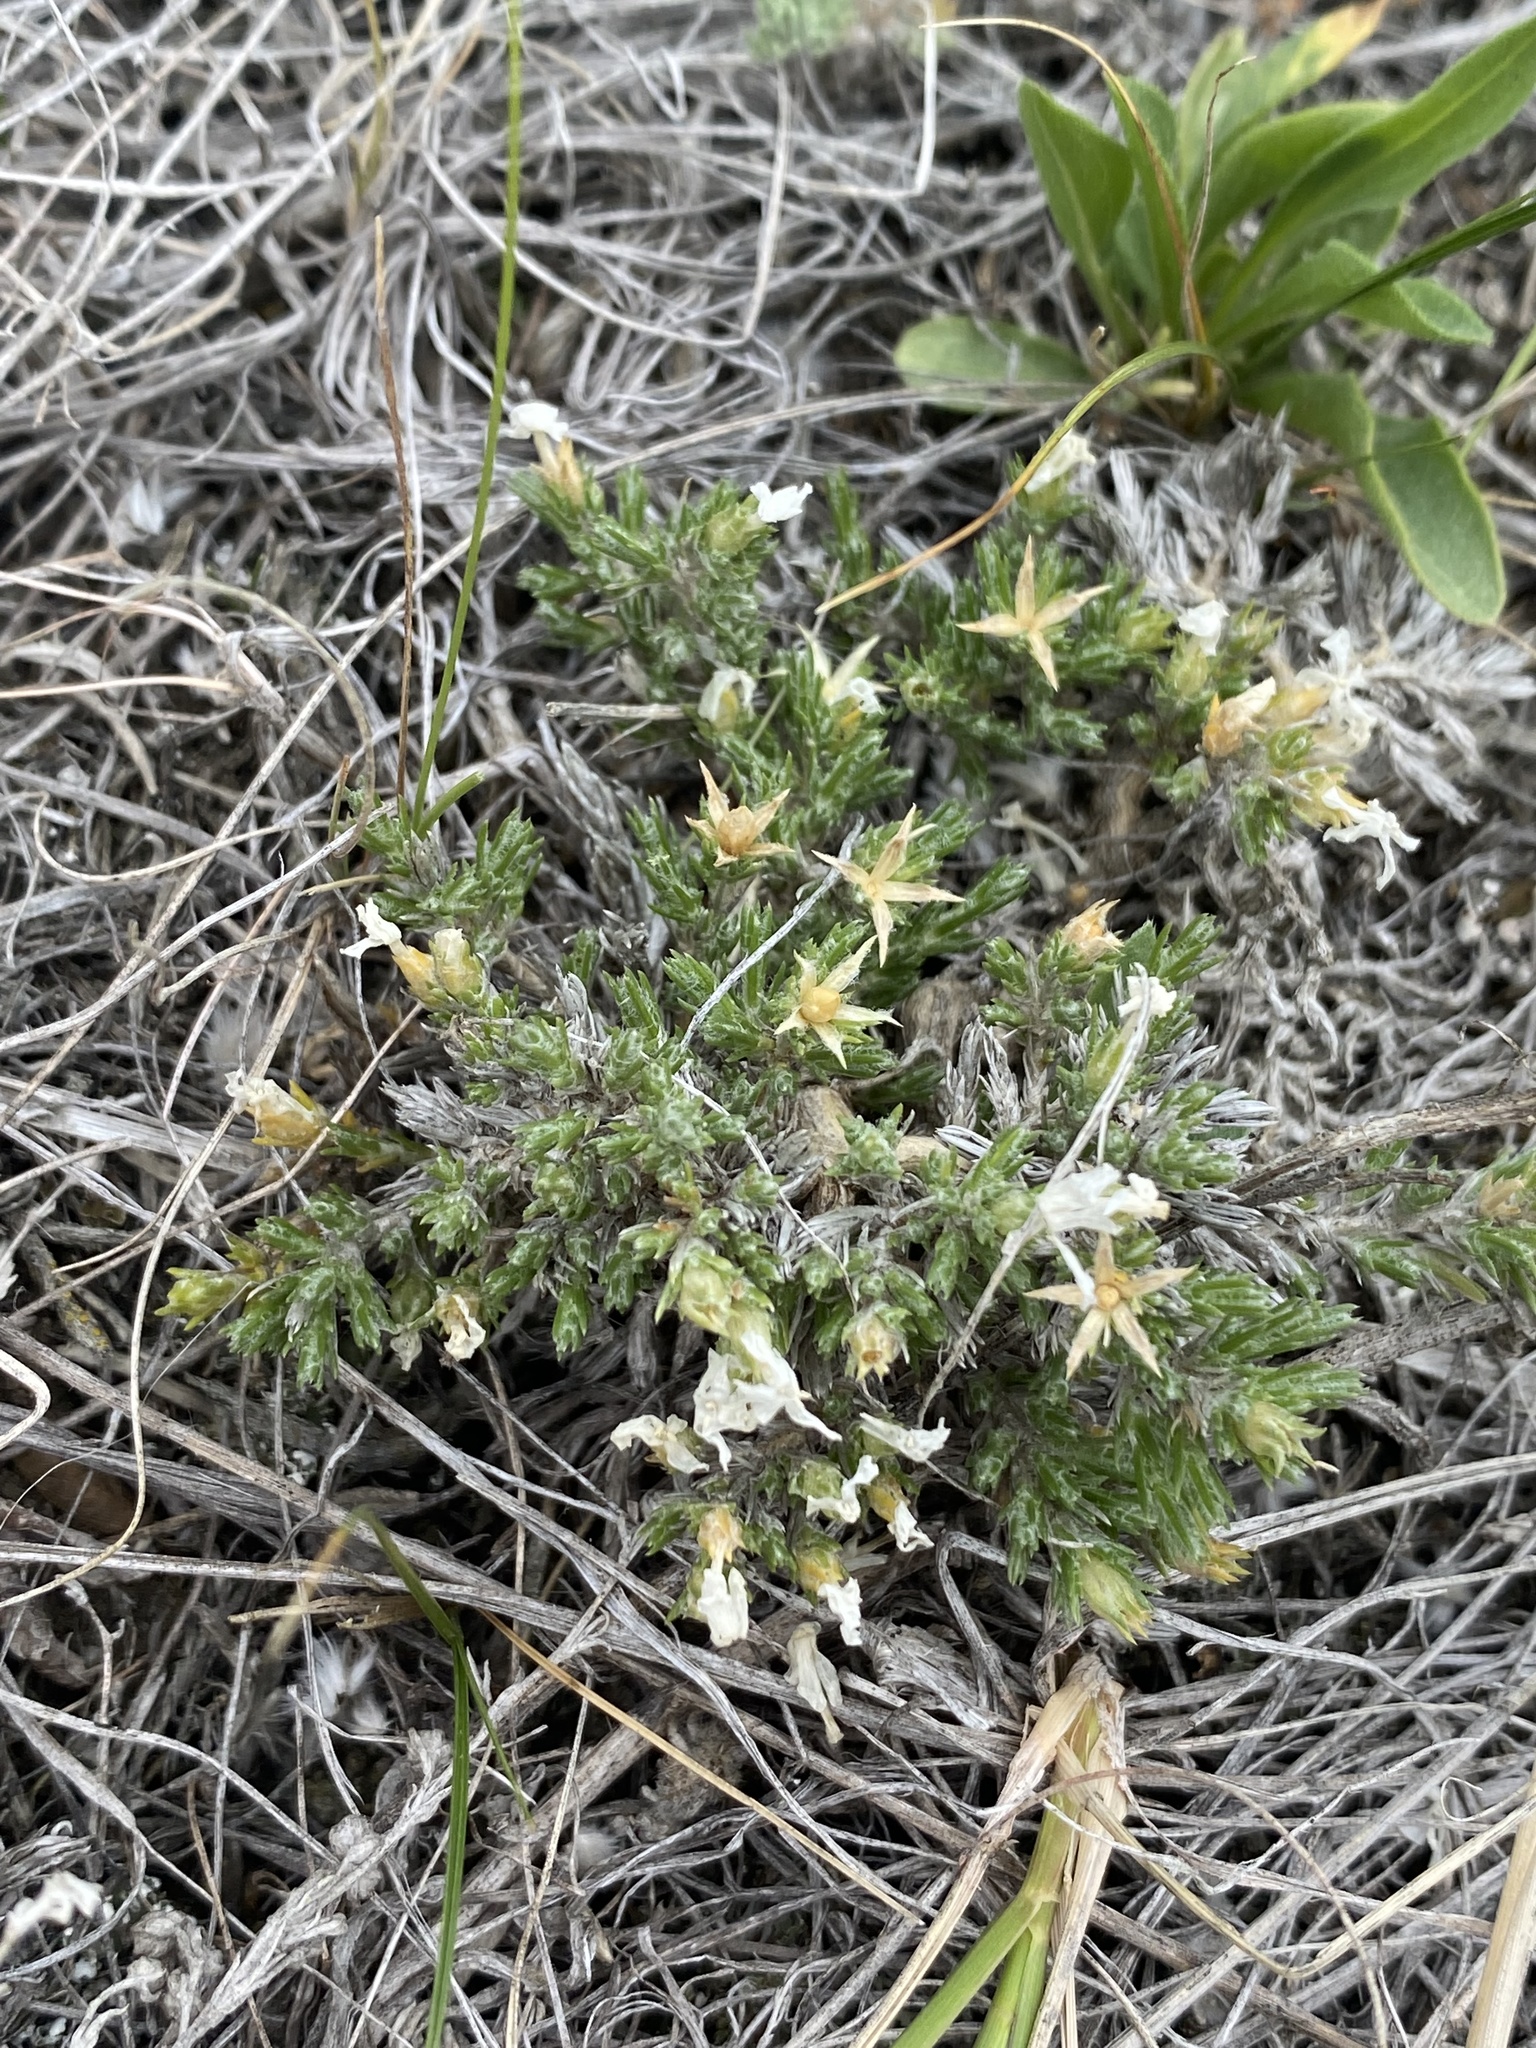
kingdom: Plantae
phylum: Tracheophyta
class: Magnoliopsida
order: Ericales
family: Polemoniaceae
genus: Phlox
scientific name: Phlox hoodii
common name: Moss phlox
